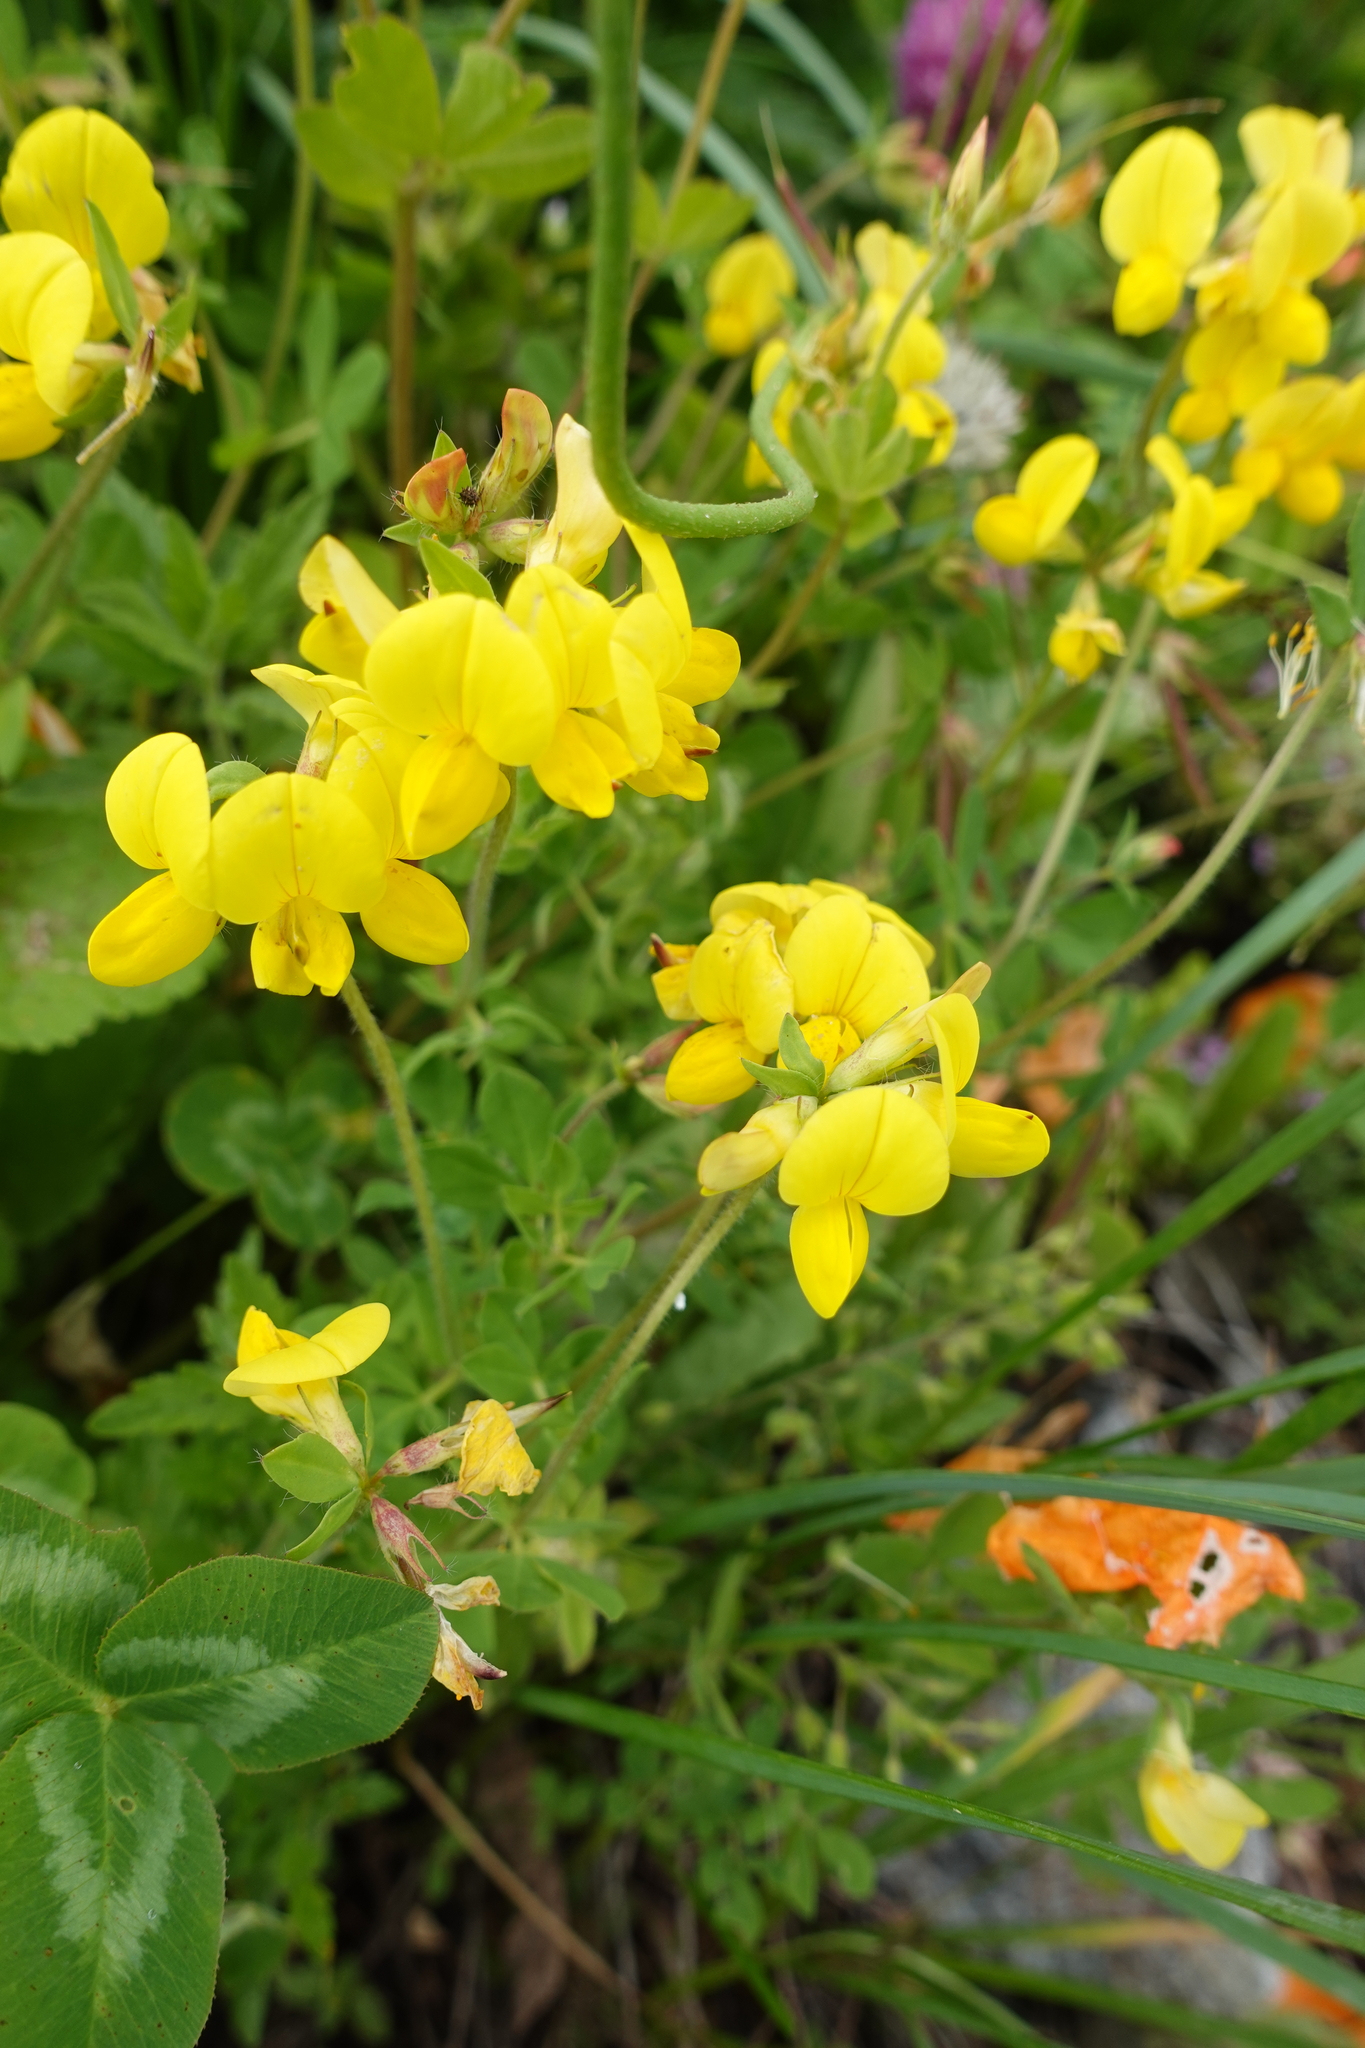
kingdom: Plantae
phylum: Tracheophyta
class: Magnoliopsida
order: Fabales
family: Fabaceae
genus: Lotus
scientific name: Lotus corniculatus
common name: Common bird's-foot-trefoil
